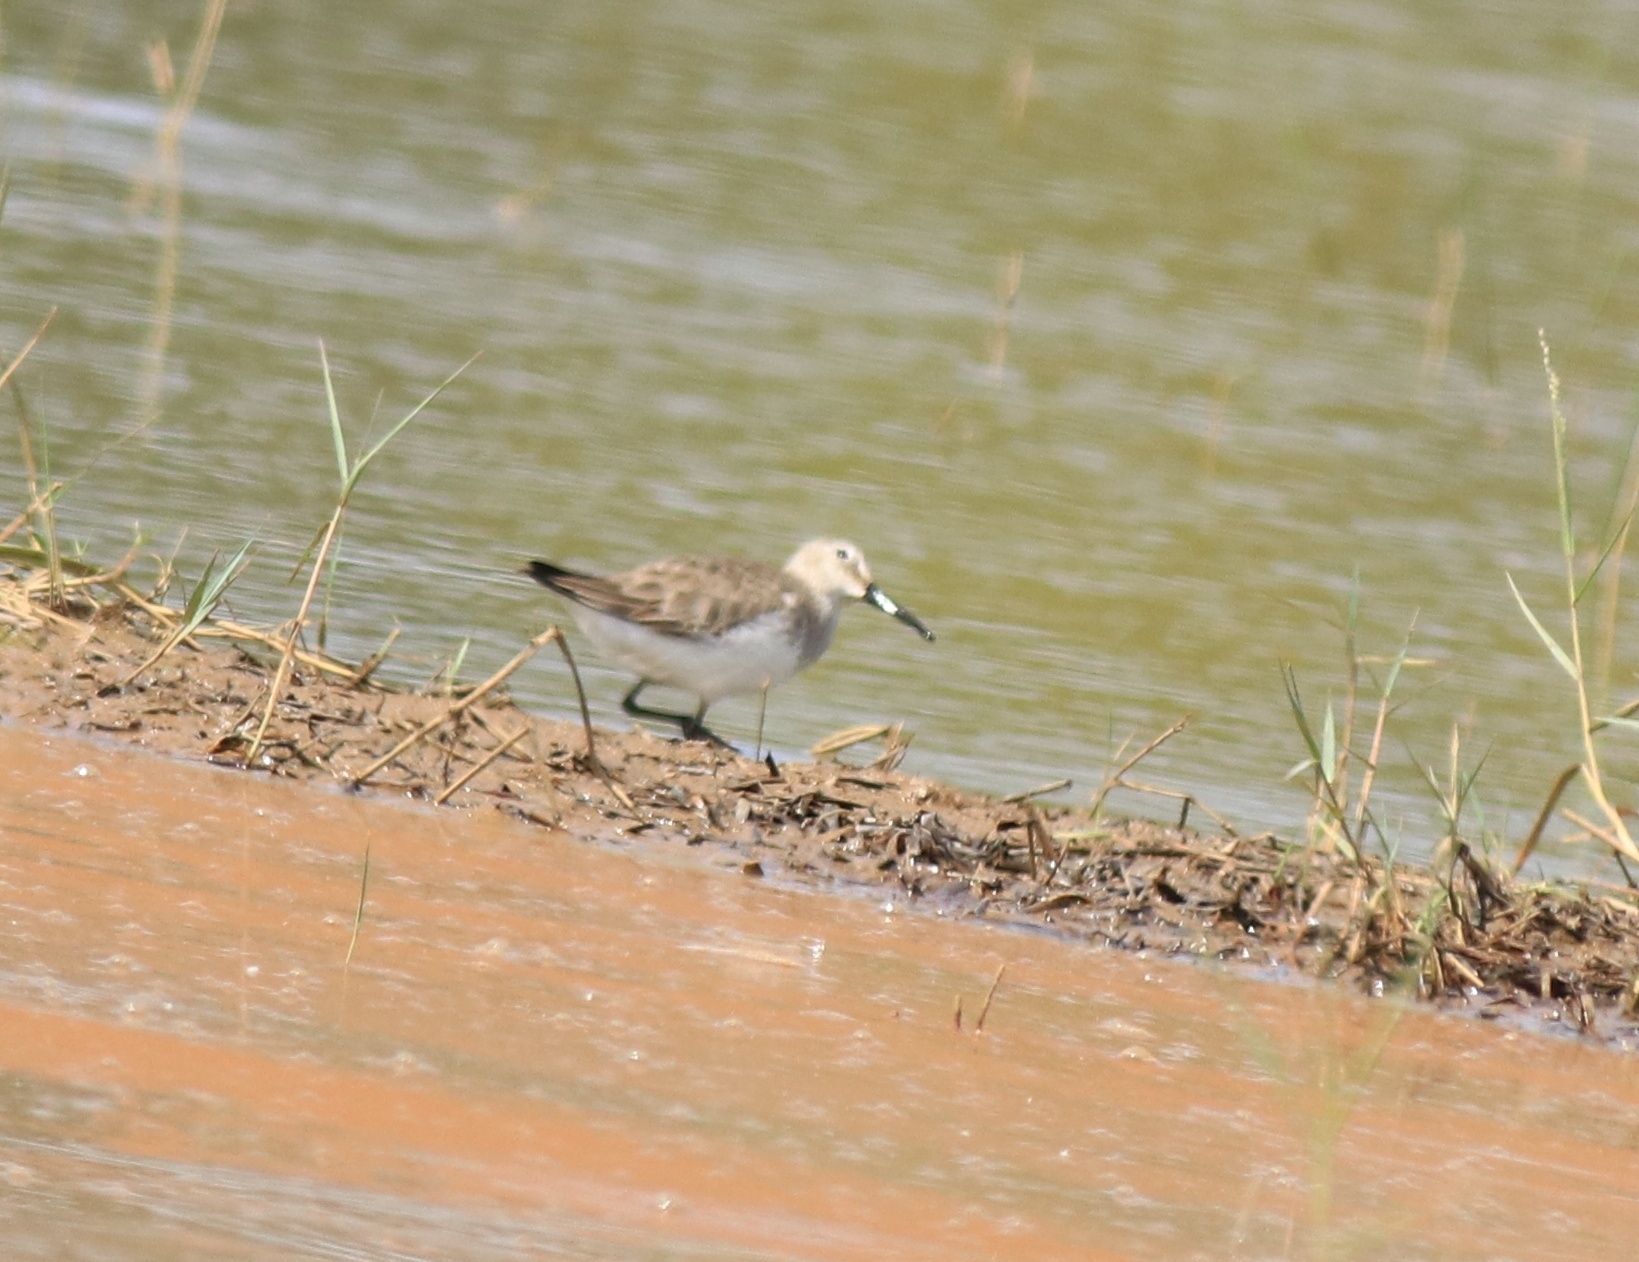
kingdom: Animalia
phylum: Chordata
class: Aves
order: Charadriiformes
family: Scolopacidae
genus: Calidris
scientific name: Calidris alpina
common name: Dunlin
